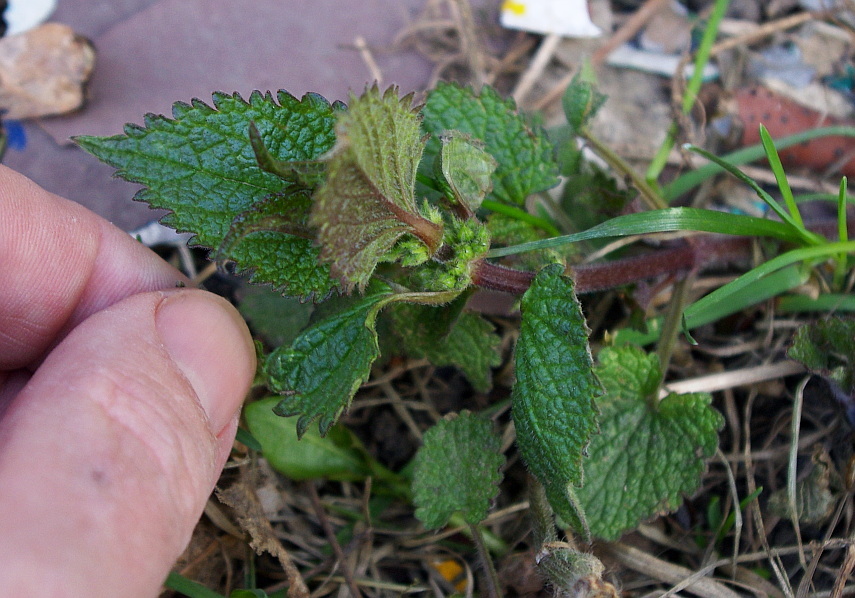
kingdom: Plantae
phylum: Tracheophyta
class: Magnoliopsida
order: Lamiales
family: Lamiaceae
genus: Lamium
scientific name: Lamium album
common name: White dead-nettle
